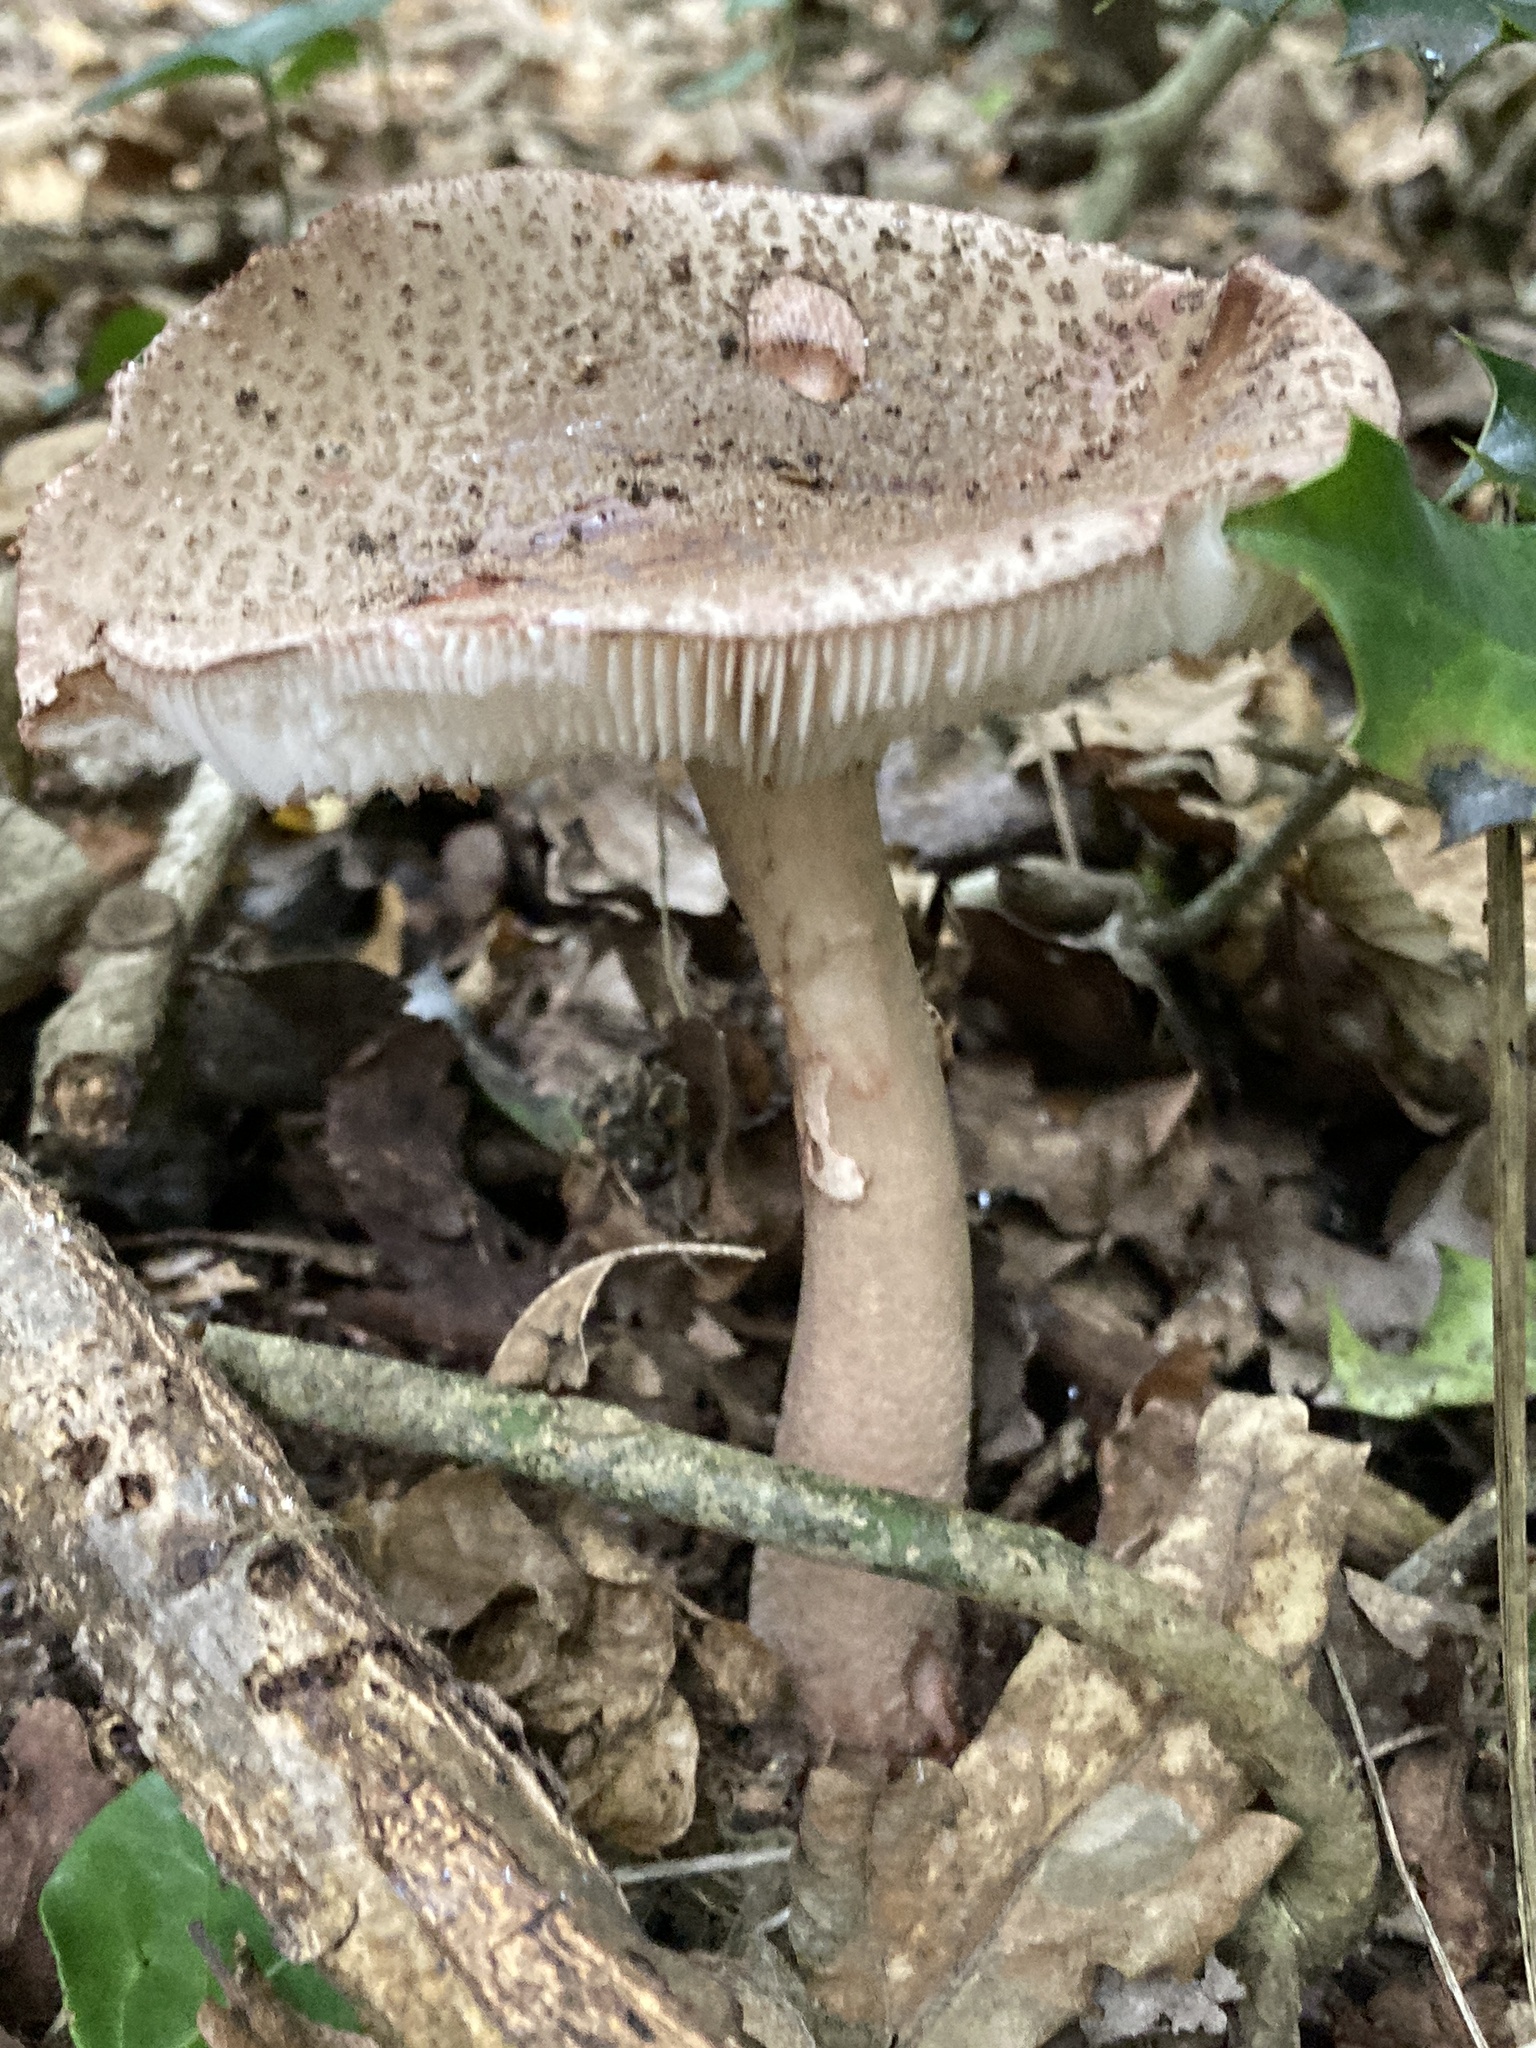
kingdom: Fungi
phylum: Basidiomycota
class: Agaricomycetes
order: Agaricales
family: Amanitaceae
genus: Amanita
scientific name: Amanita rubescens
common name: Blusher
